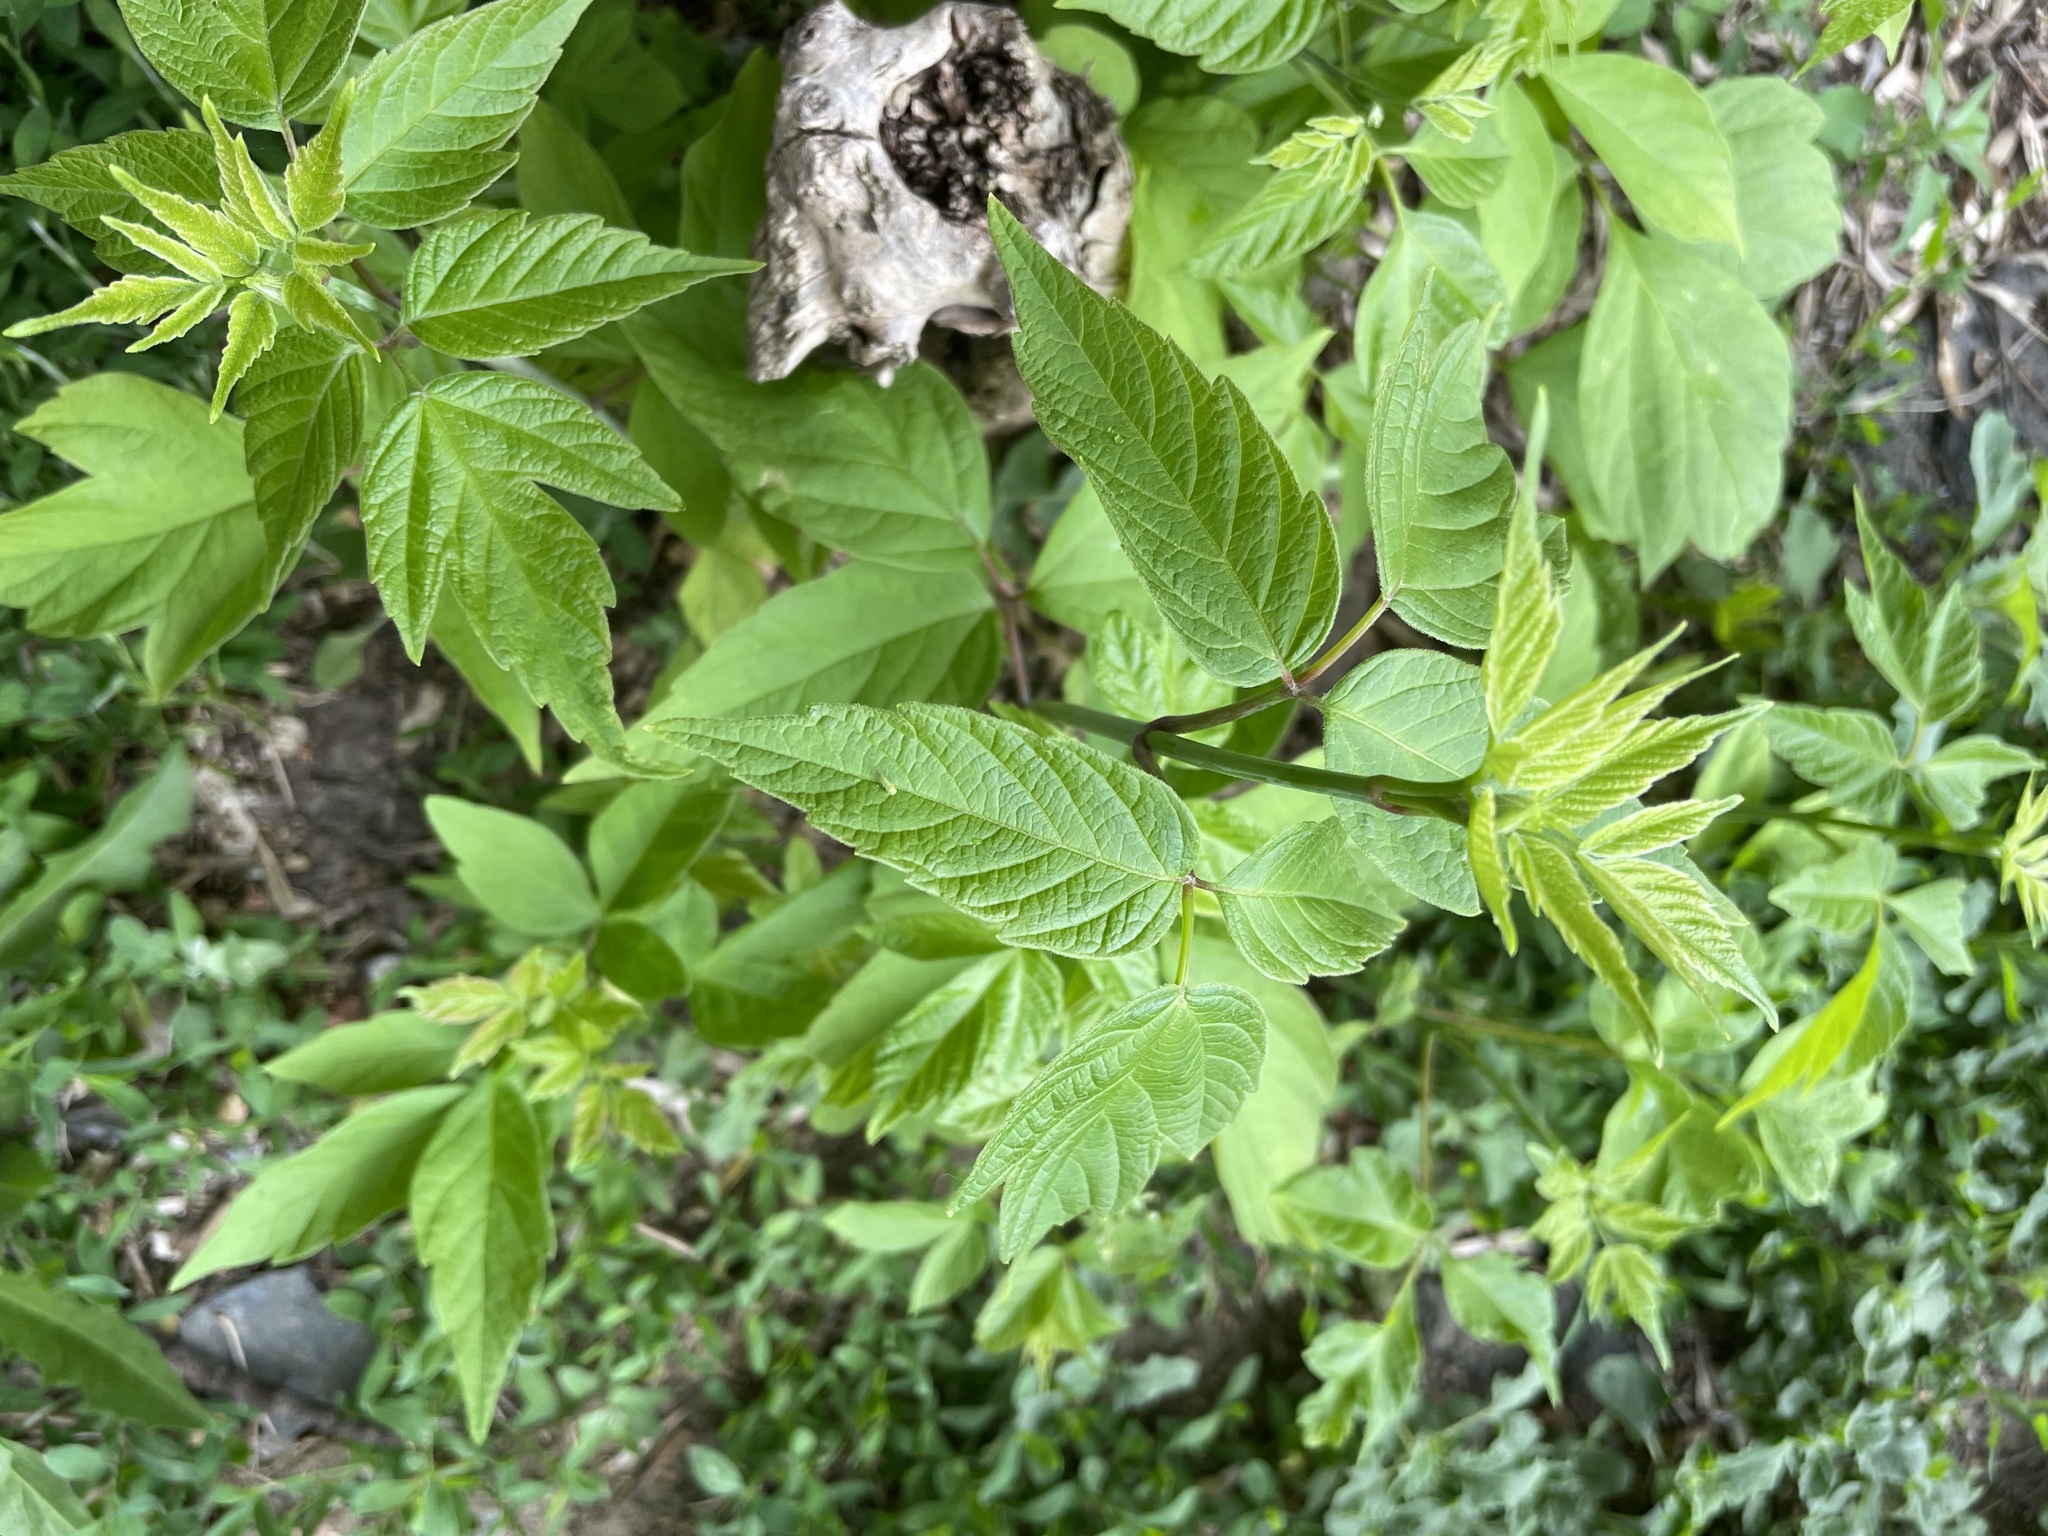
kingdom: Plantae
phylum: Tracheophyta
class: Magnoliopsida
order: Sapindales
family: Sapindaceae
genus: Acer
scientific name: Acer negundo
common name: Ashleaf maple
